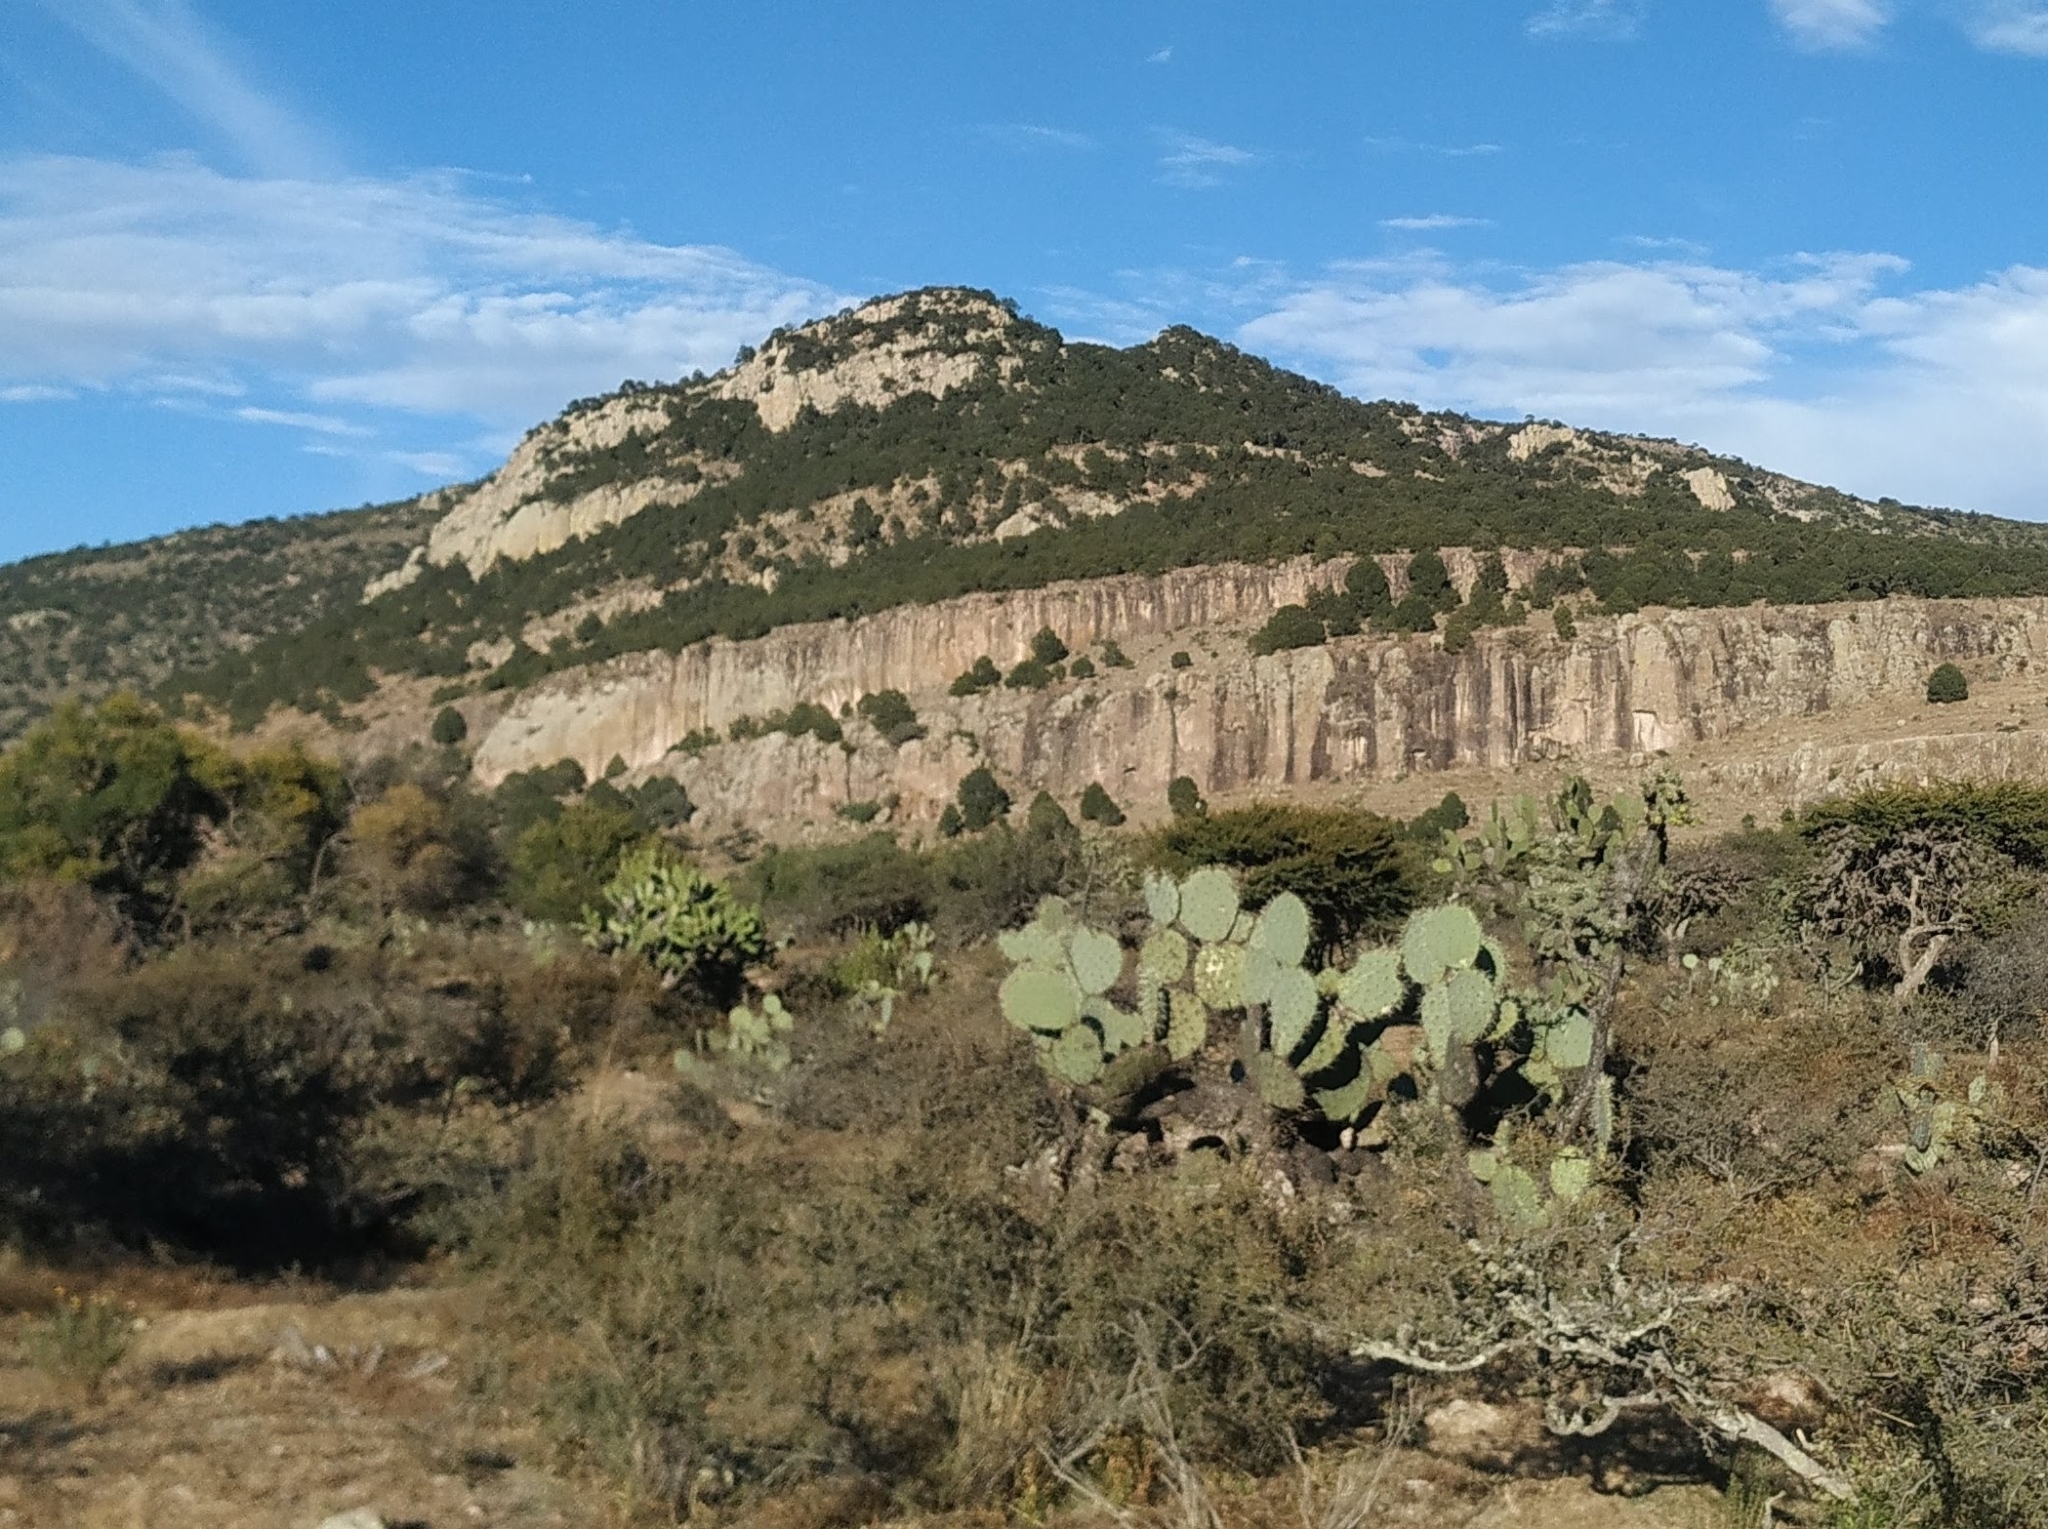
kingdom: Plantae
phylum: Tracheophyta
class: Magnoliopsida
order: Caryophyllales
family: Cactaceae
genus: Opuntia
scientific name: Opuntia robusta
